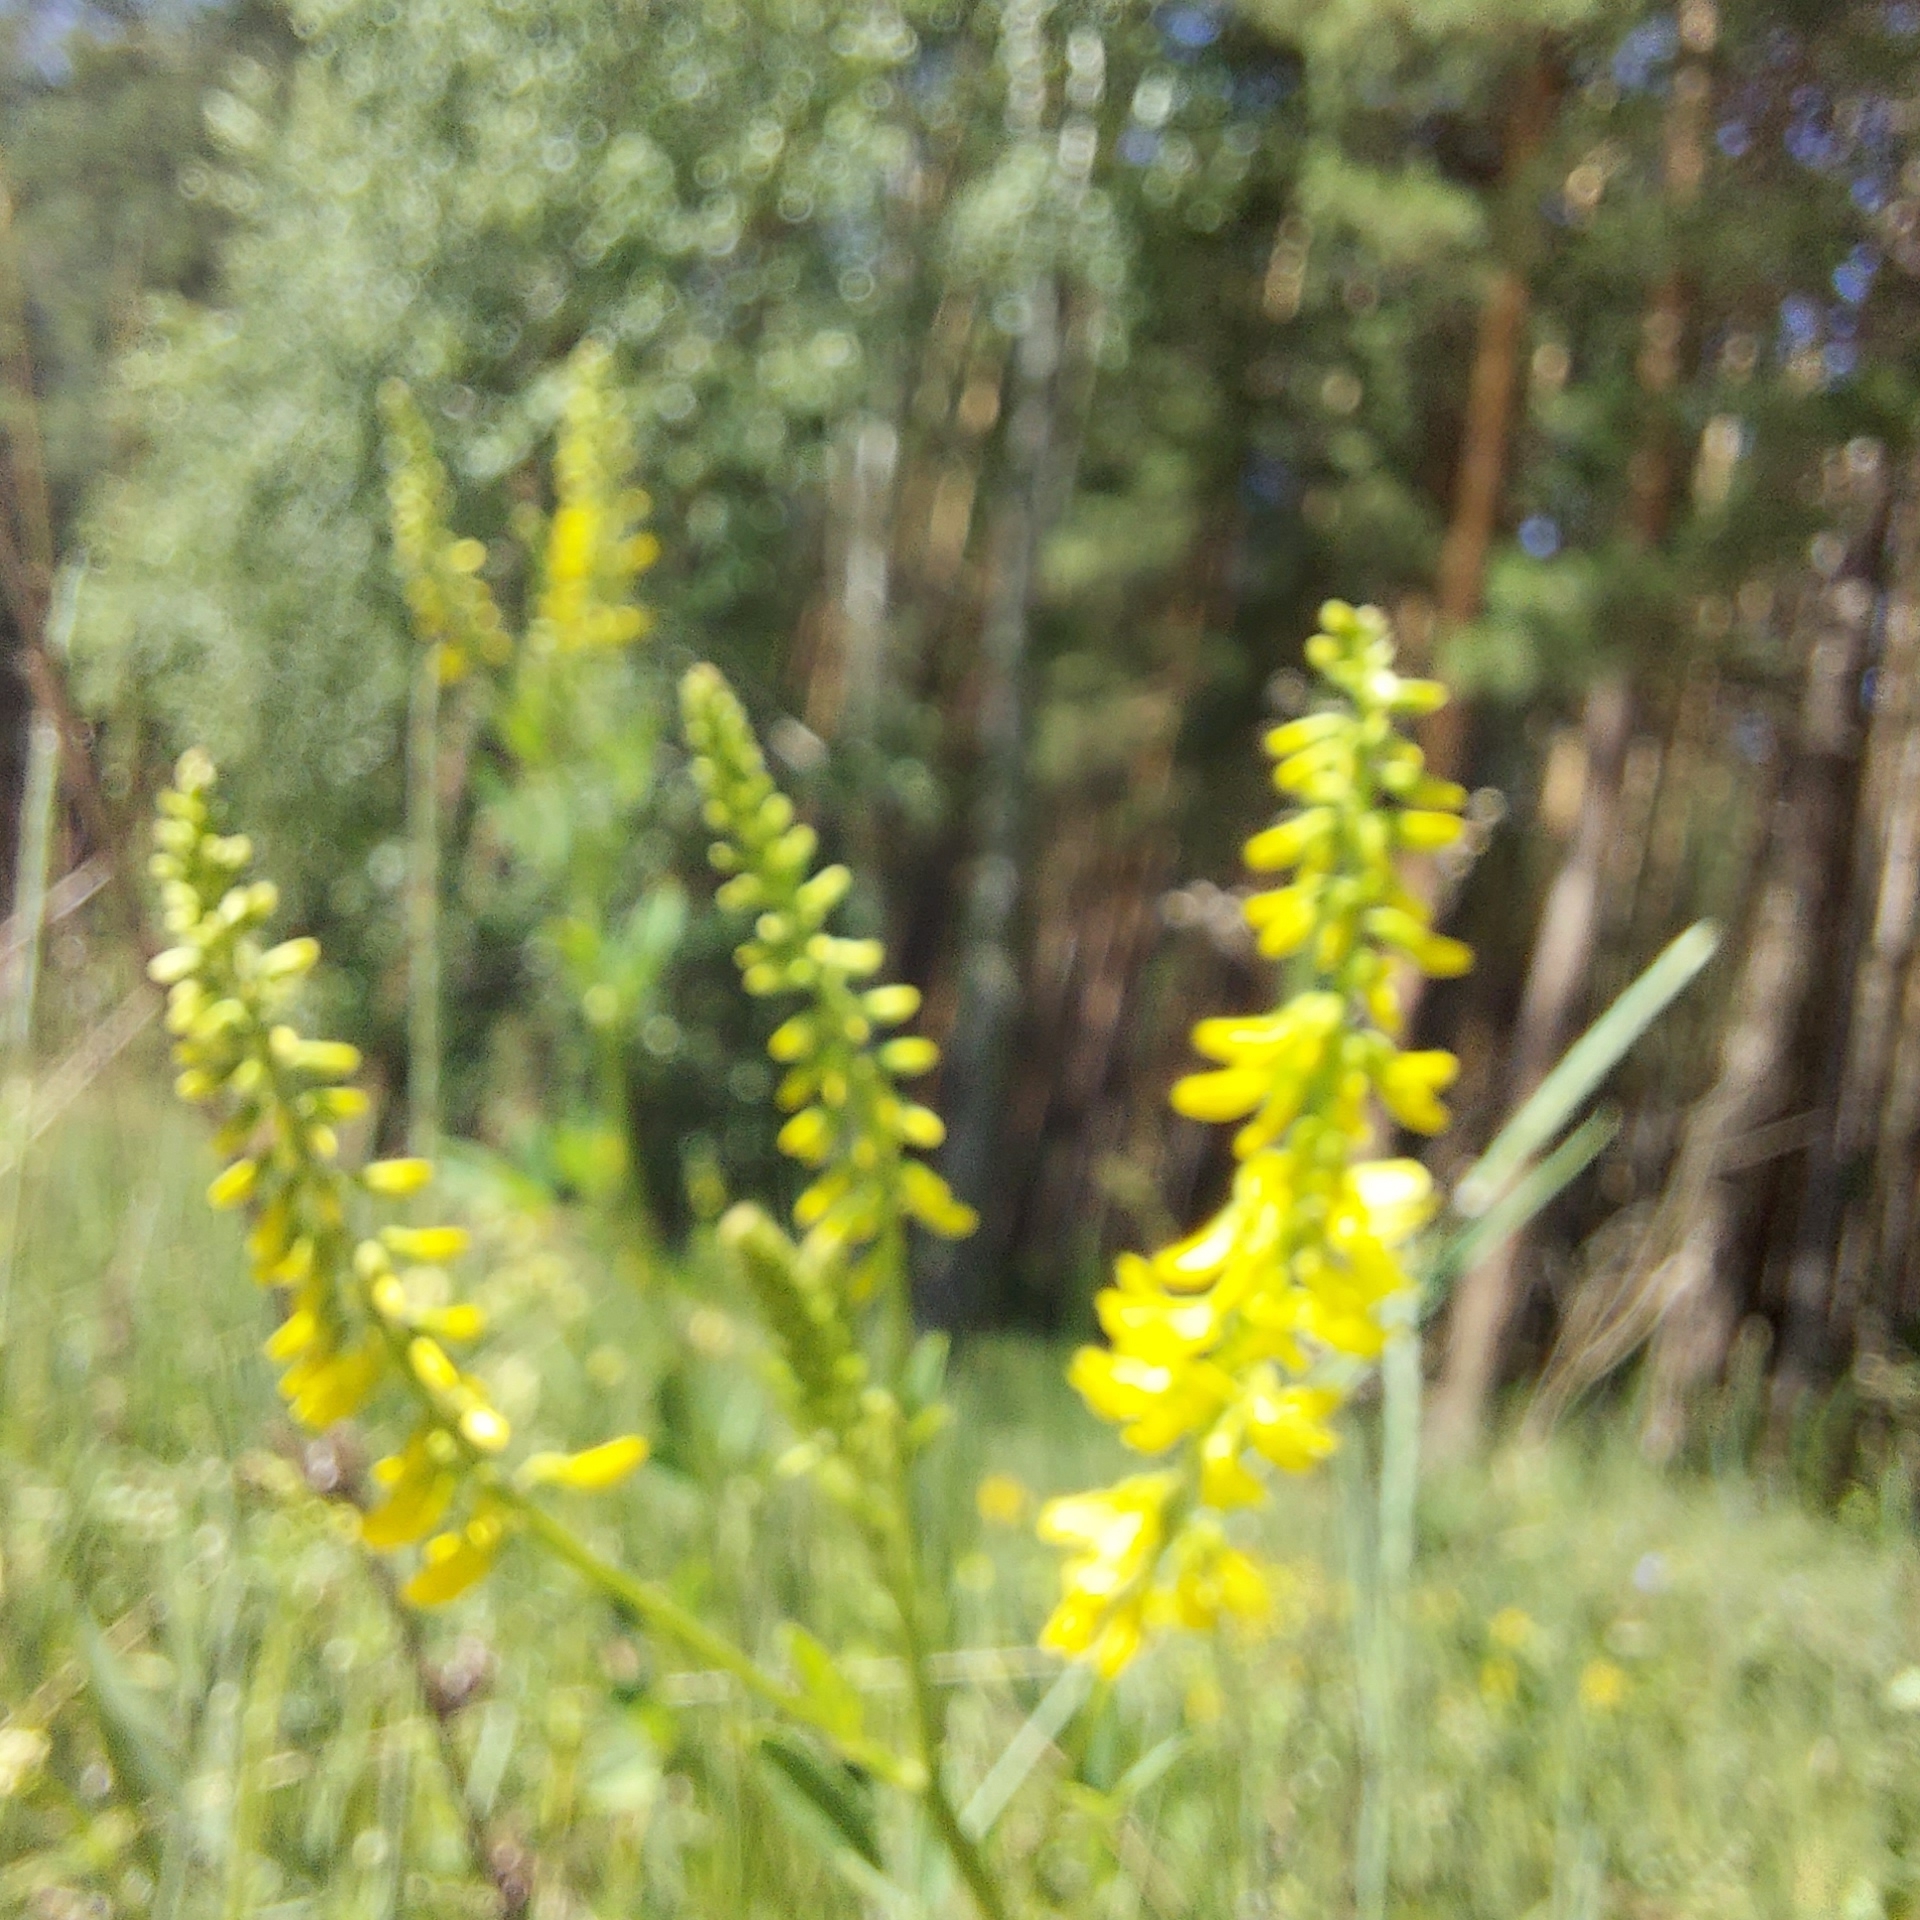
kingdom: Plantae
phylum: Tracheophyta
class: Magnoliopsida
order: Fabales
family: Fabaceae
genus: Melilotus
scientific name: Melilotus officinalis
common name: Sweetclover
